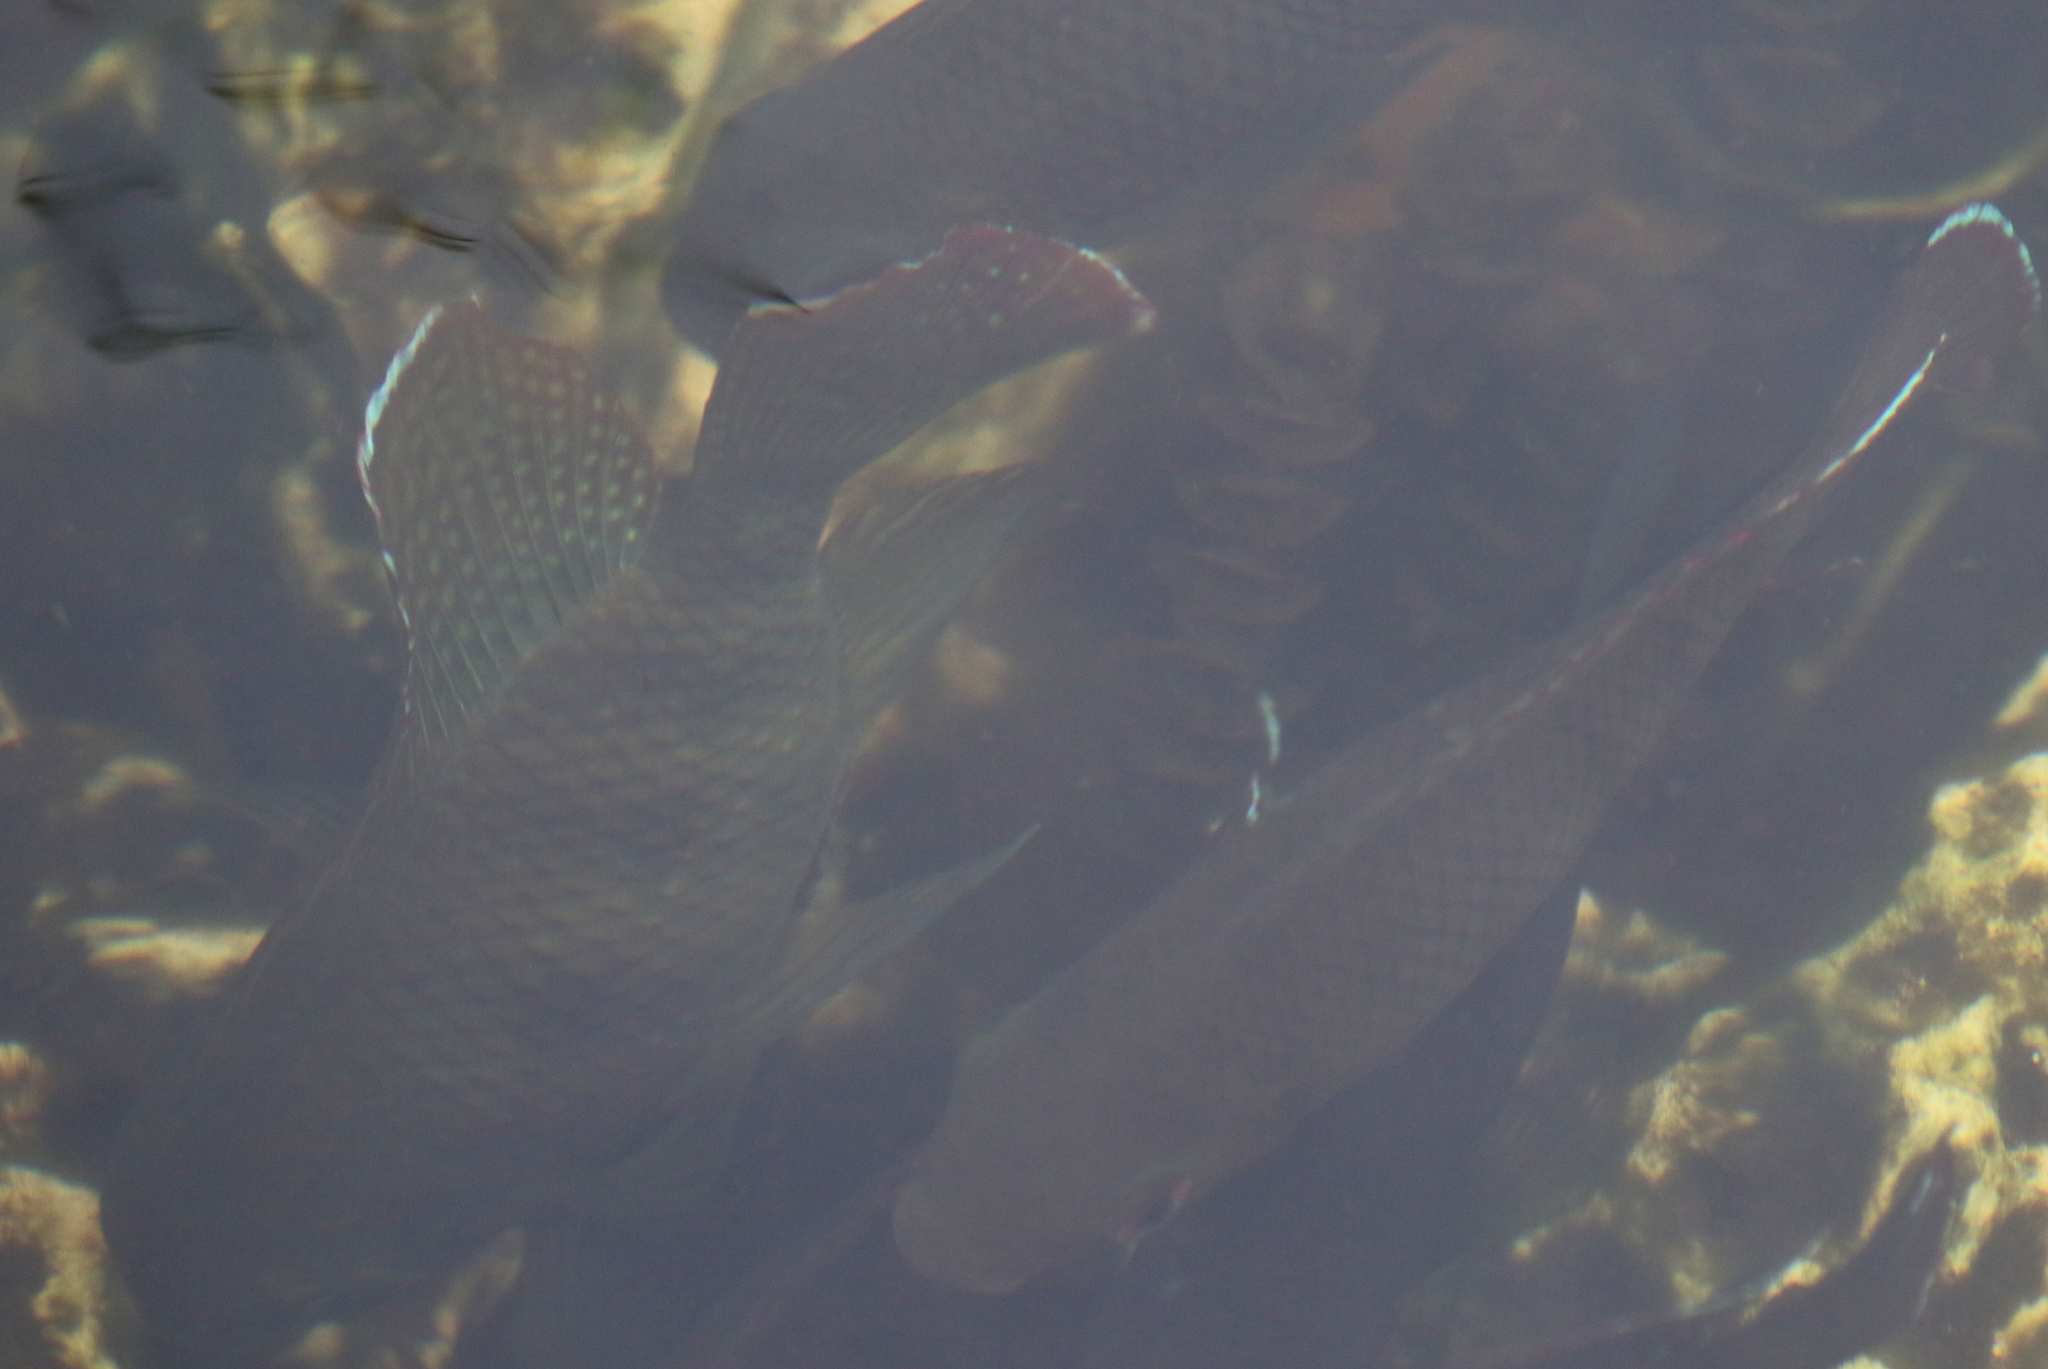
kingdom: Animalia
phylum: Chordata
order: Perciformes
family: Cichlidae
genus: Pelmatolapia
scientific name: Pelmatolapia mariae
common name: Spotted tilapia
